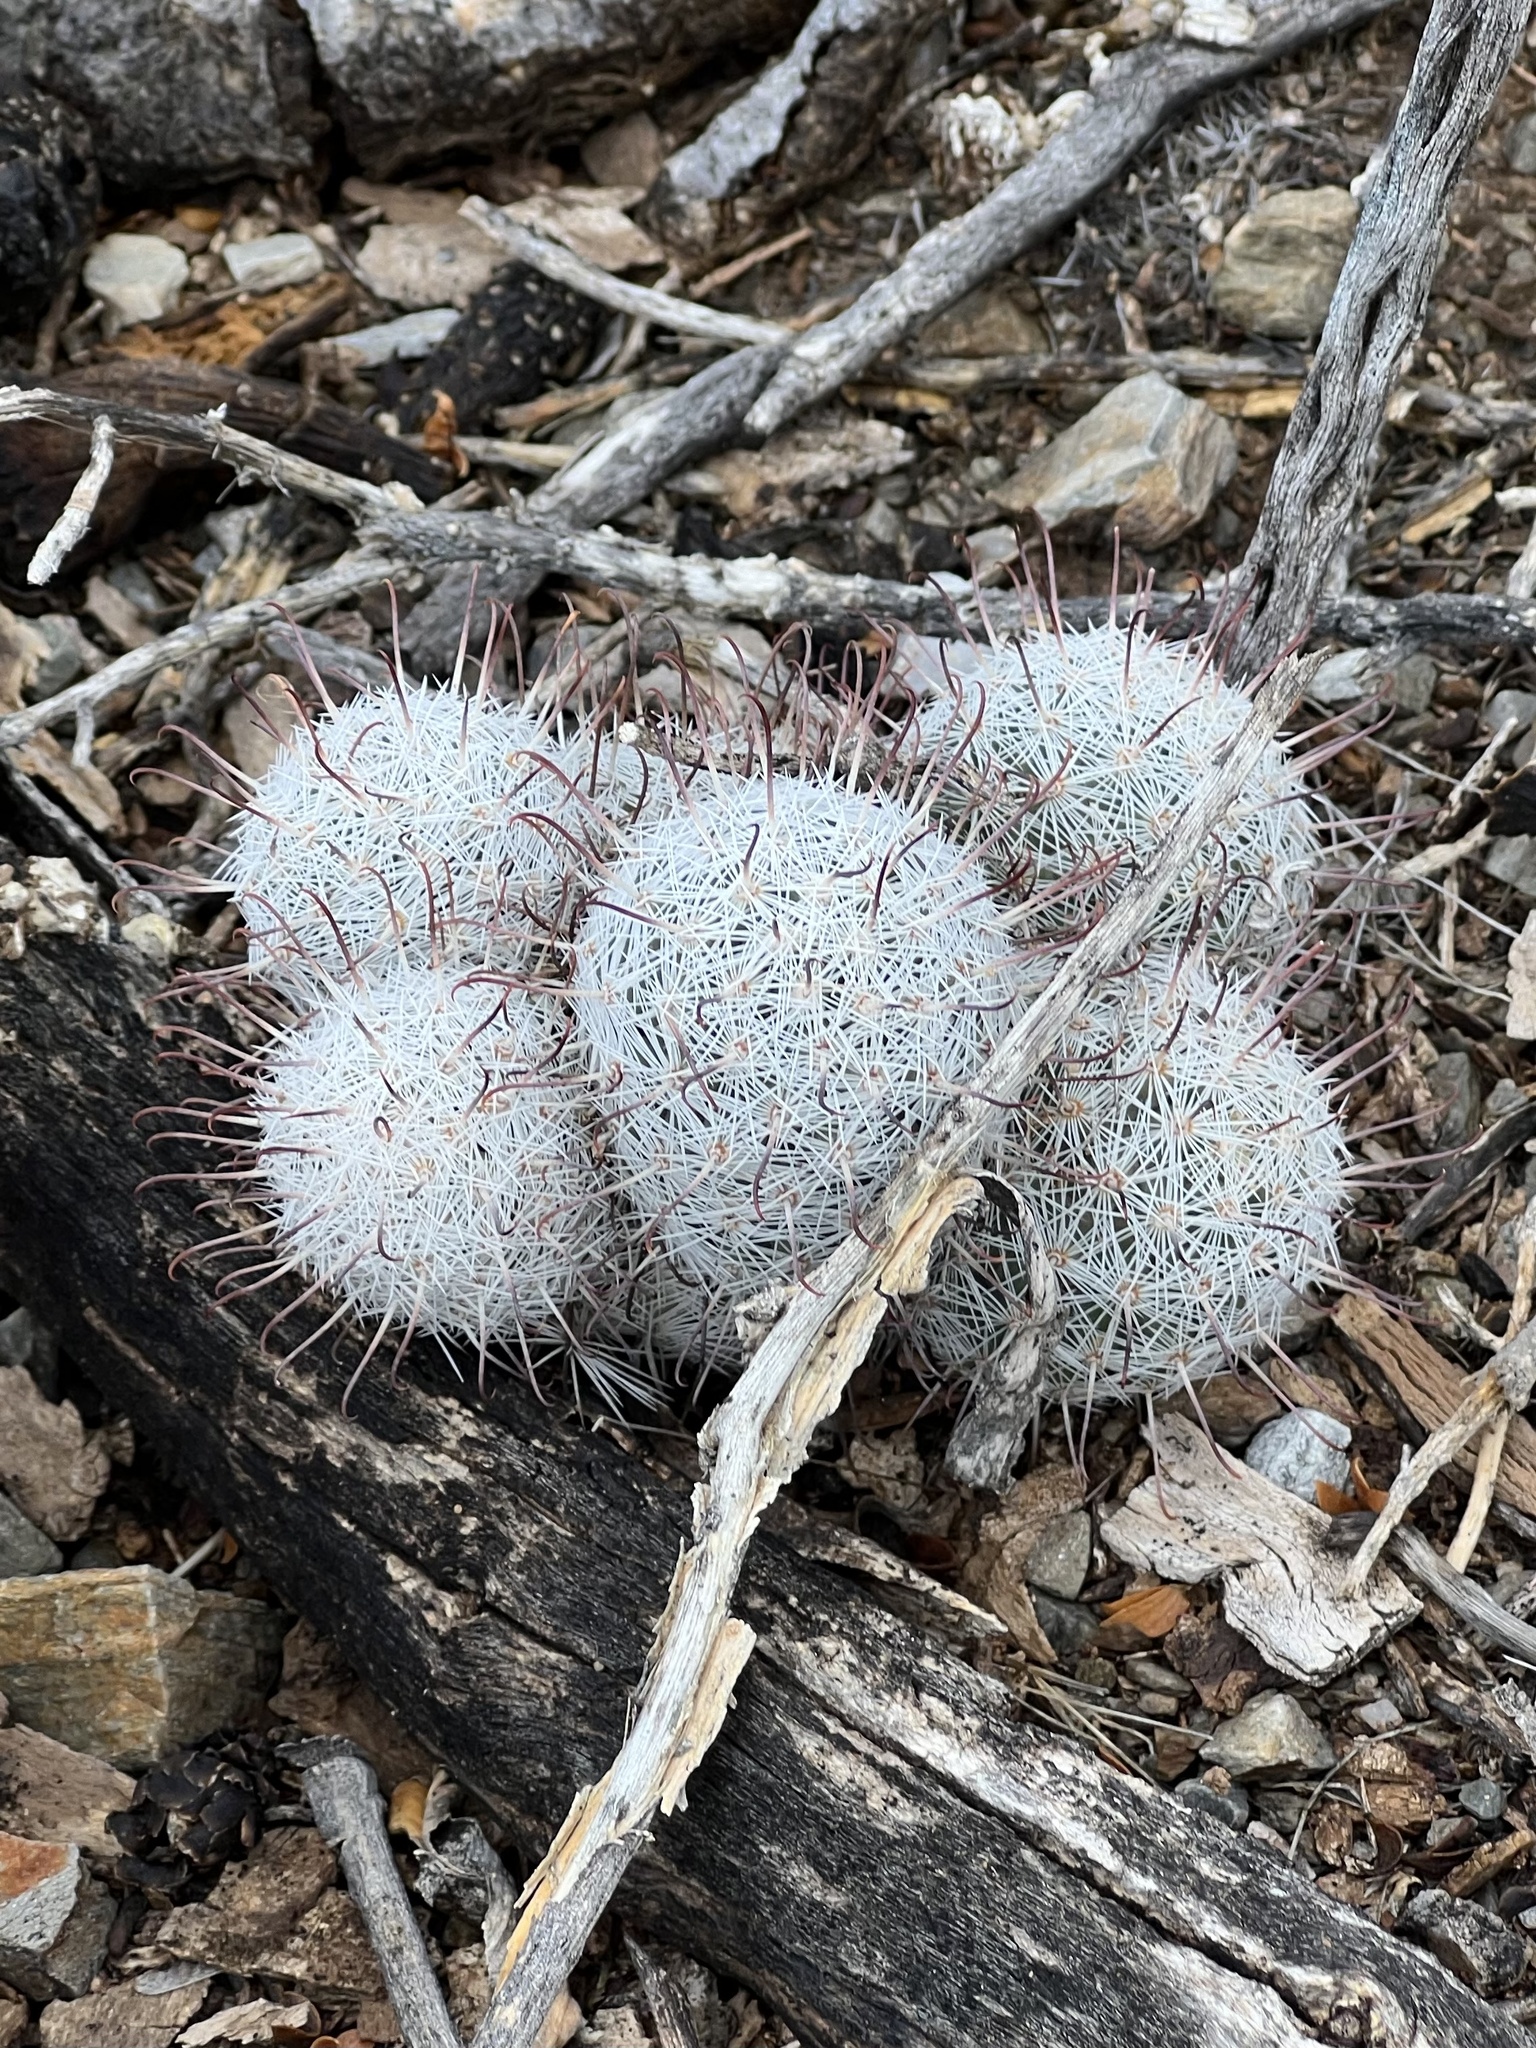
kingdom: Plantae
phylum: Tracheophyta
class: Magnoliopsida
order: Caryophyllales
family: Cactaceae
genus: Cochemiea
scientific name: Cochemiea grahamii
